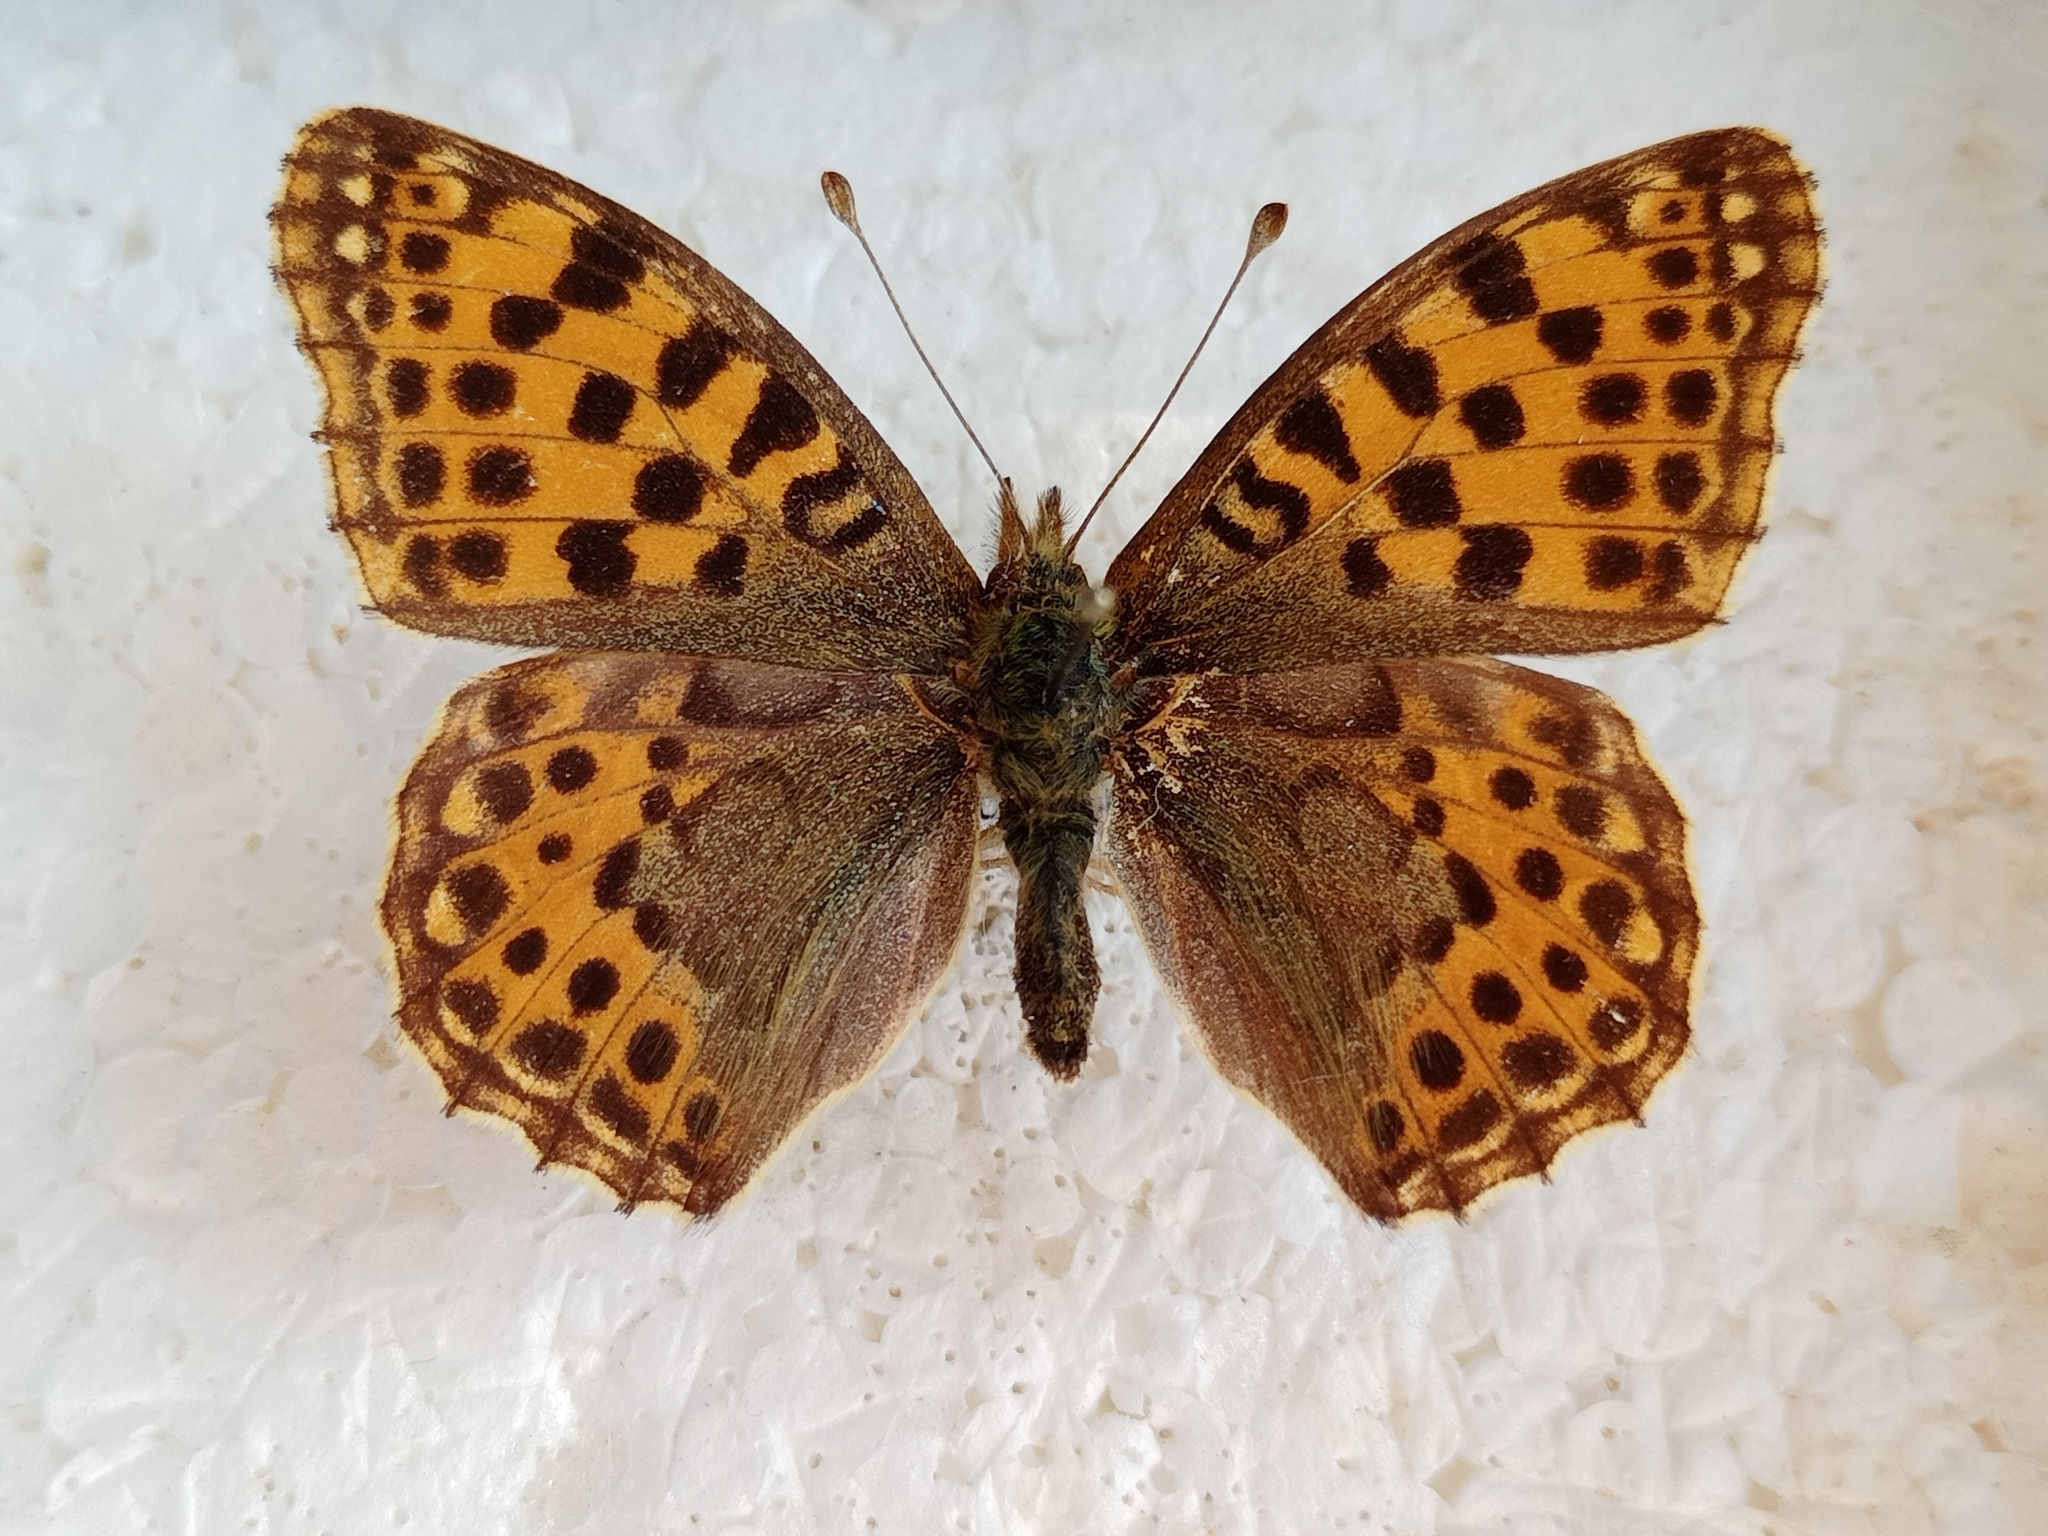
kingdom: Animalia
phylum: Arthropoda
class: Insecta
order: Lepidoptera
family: Nymphalidae
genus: Issoria
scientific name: Issoria lathonia
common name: Queen of spain fritillary
